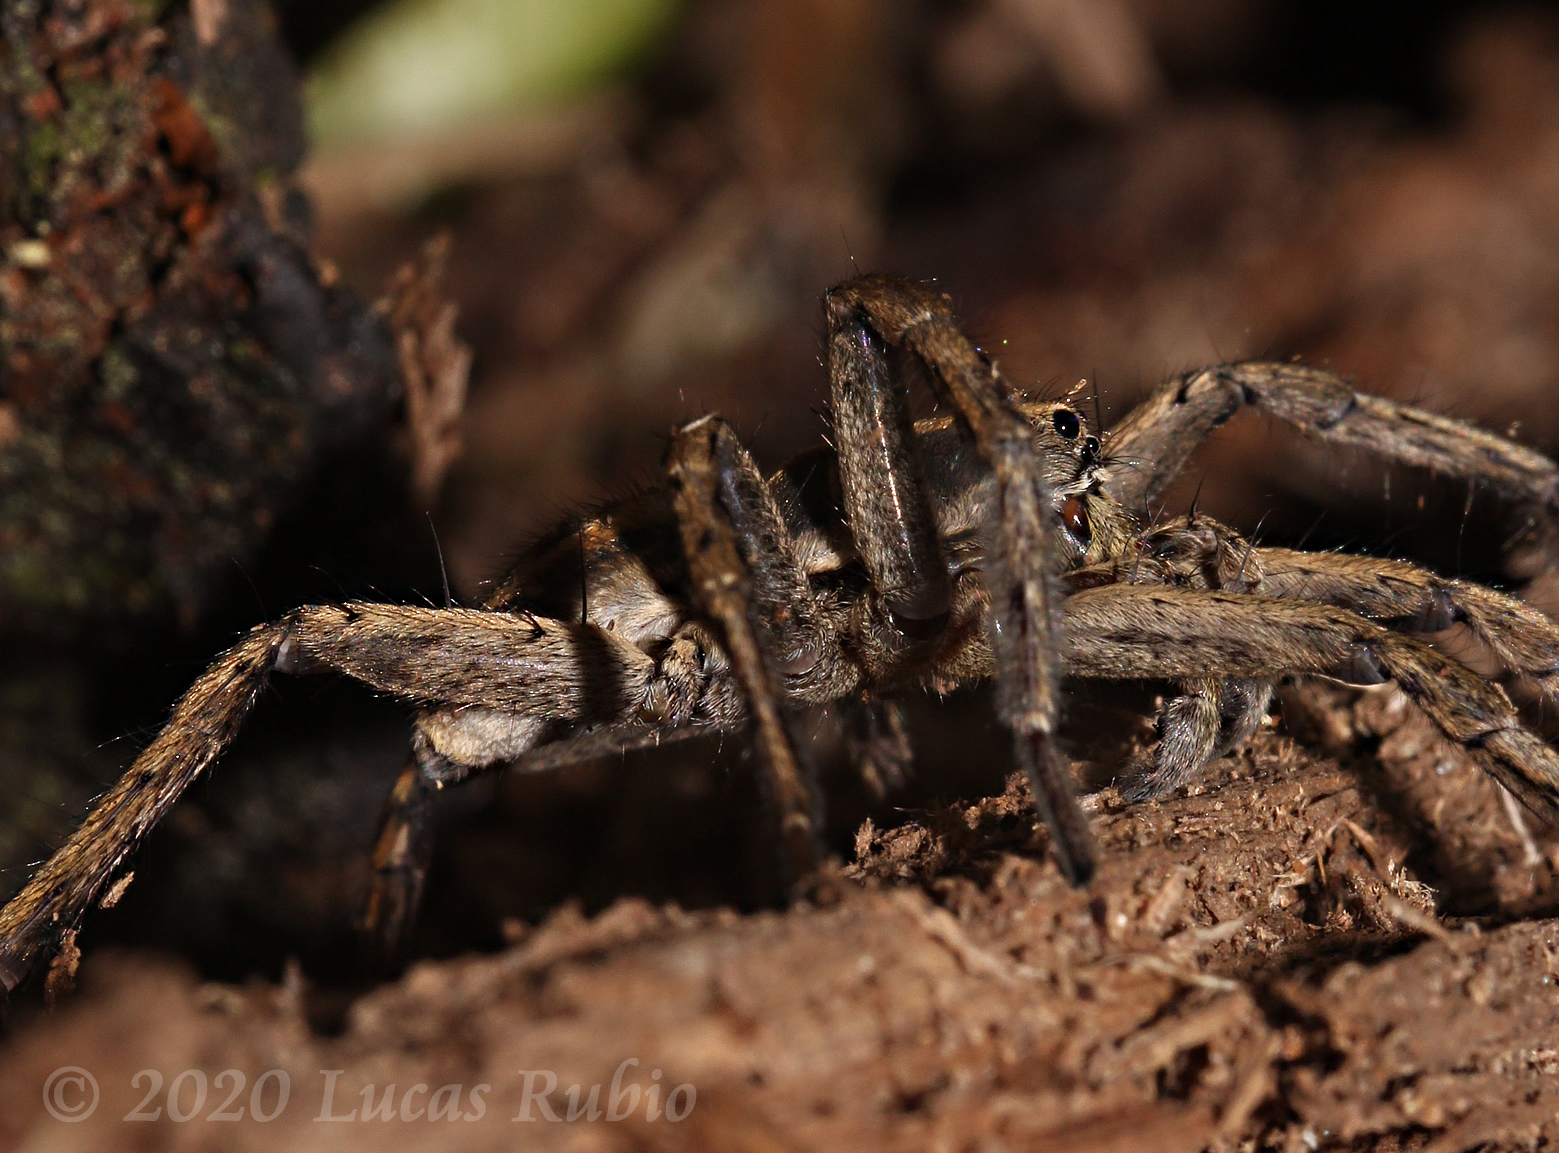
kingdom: Animalia
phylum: Arthropoda
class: Arachnida
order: Araneae
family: Lycosidae
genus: Schizocosa
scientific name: Schizocosa malitiosa
